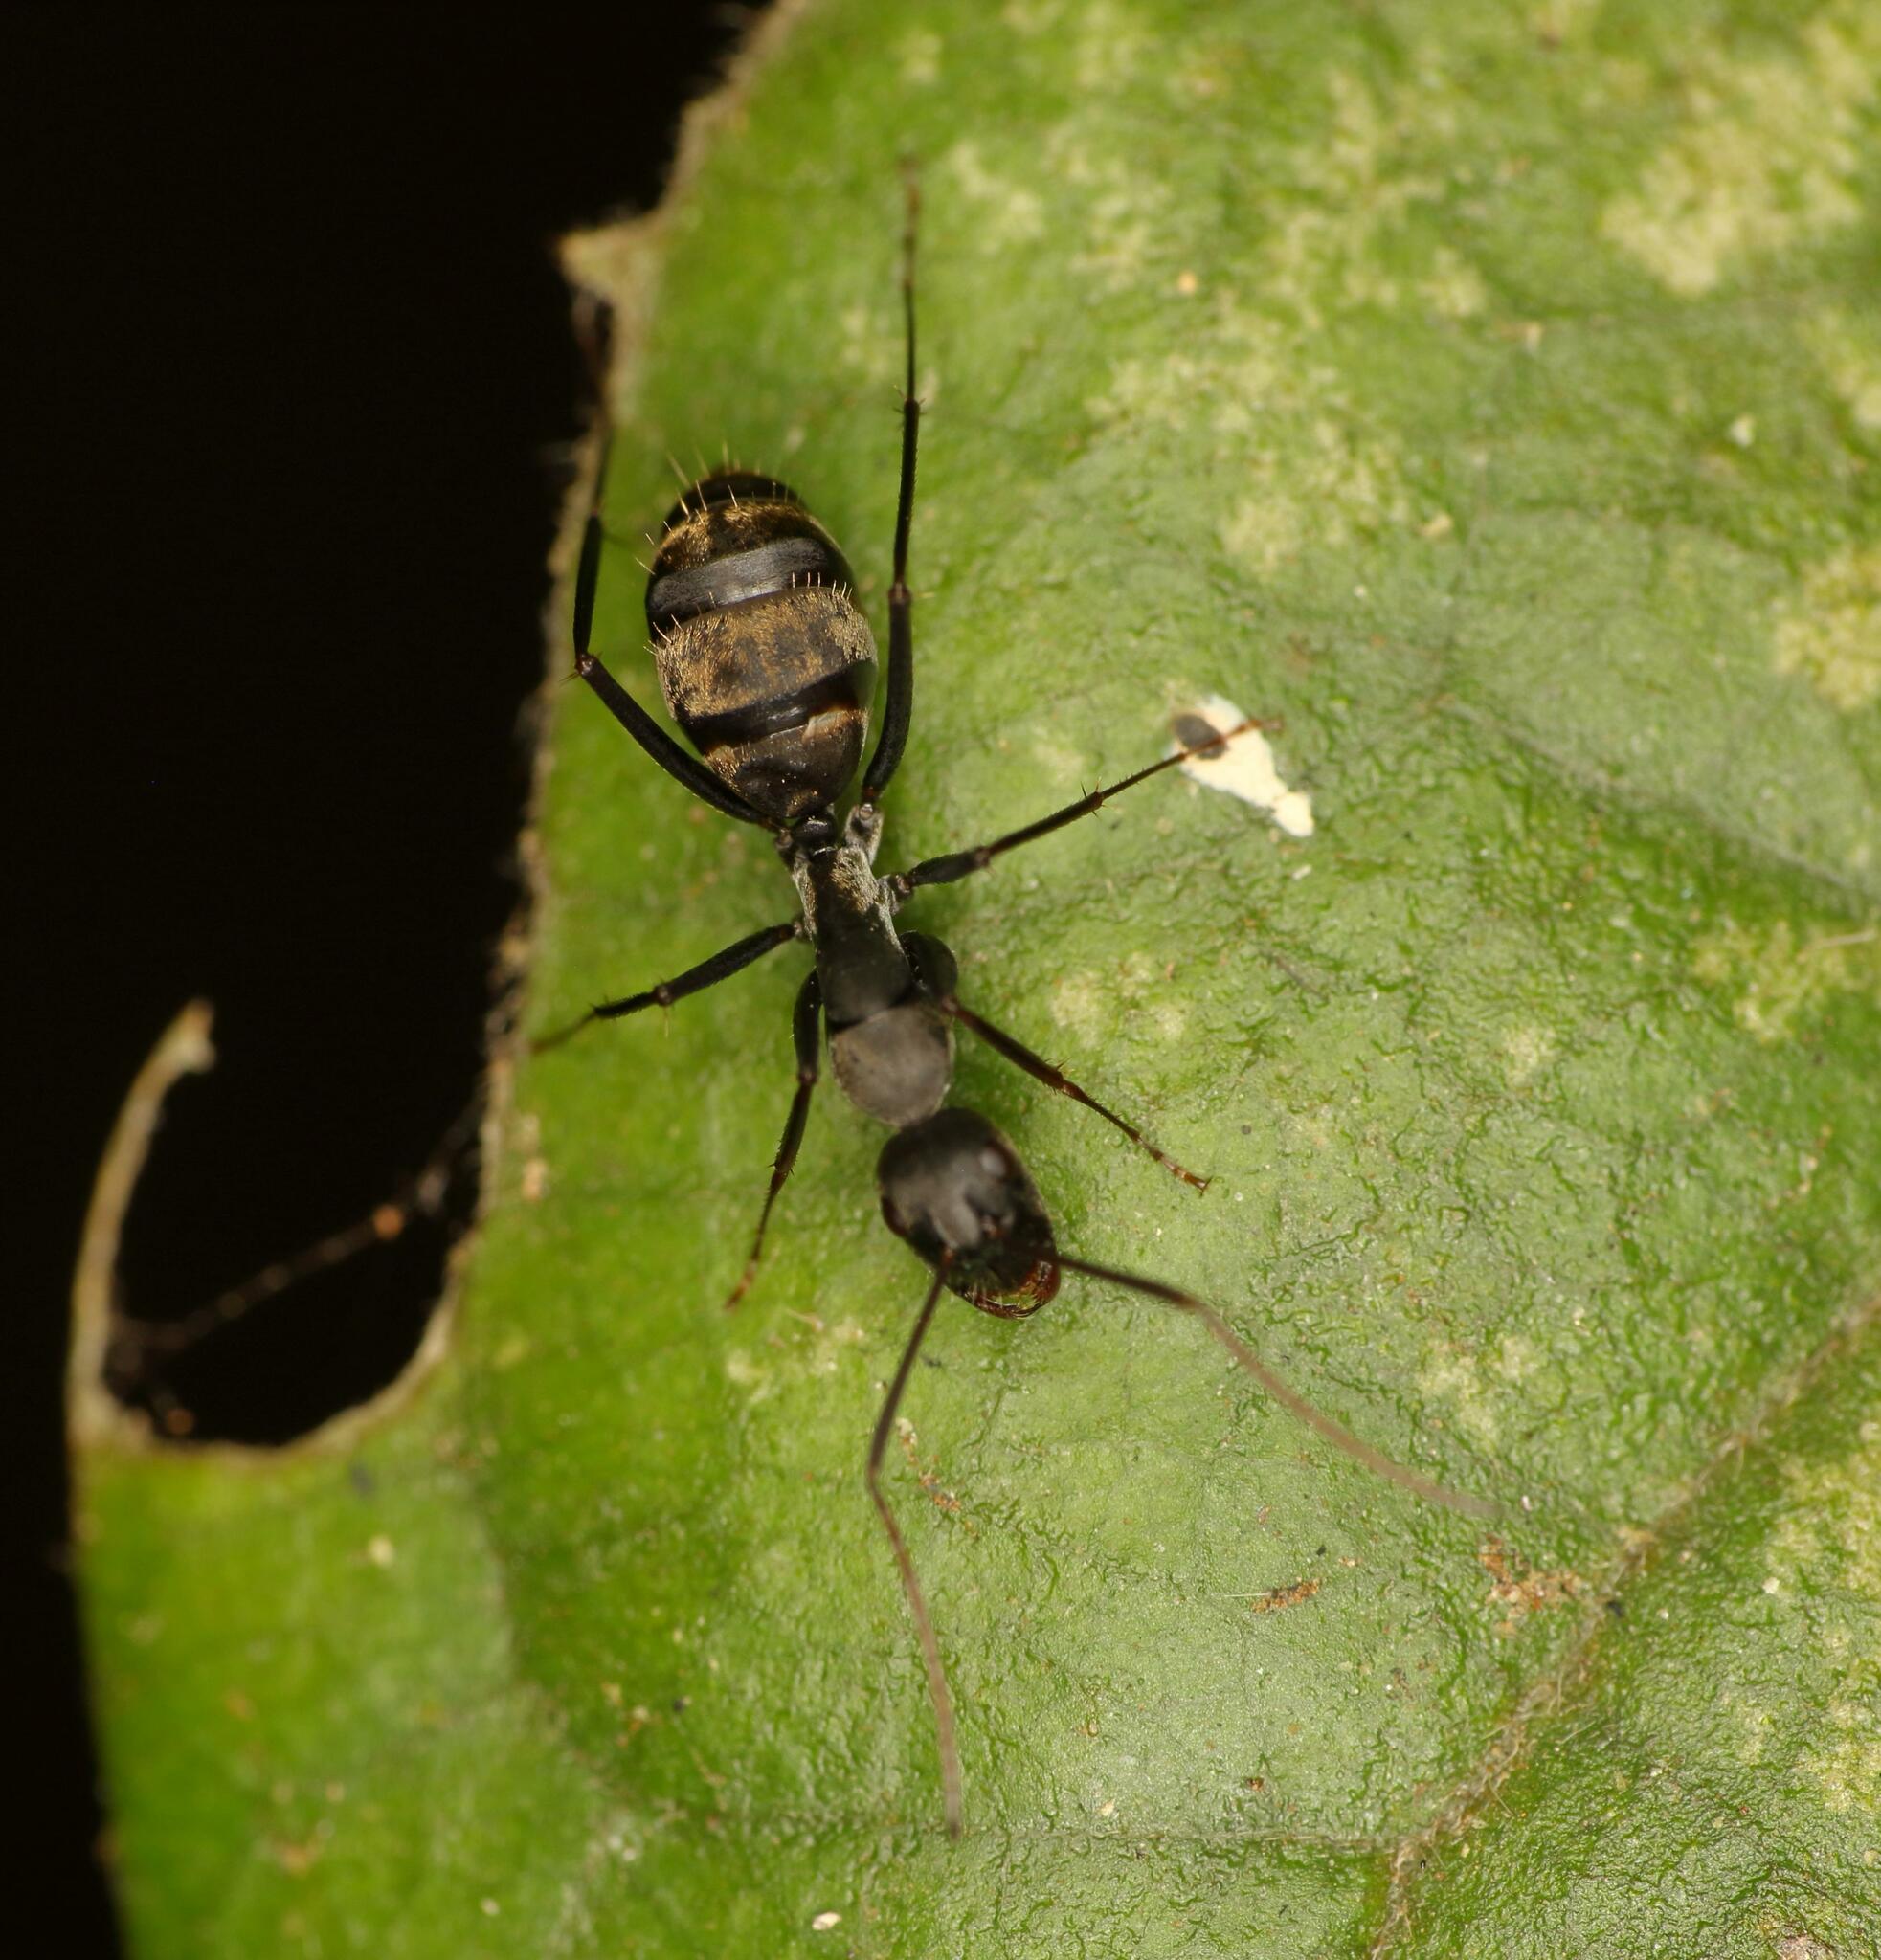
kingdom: Animalia
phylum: Arthropoda
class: Insecta
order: Hymenoptera
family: Formicidae
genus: Camponotus
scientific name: Camponotus cinctellus
